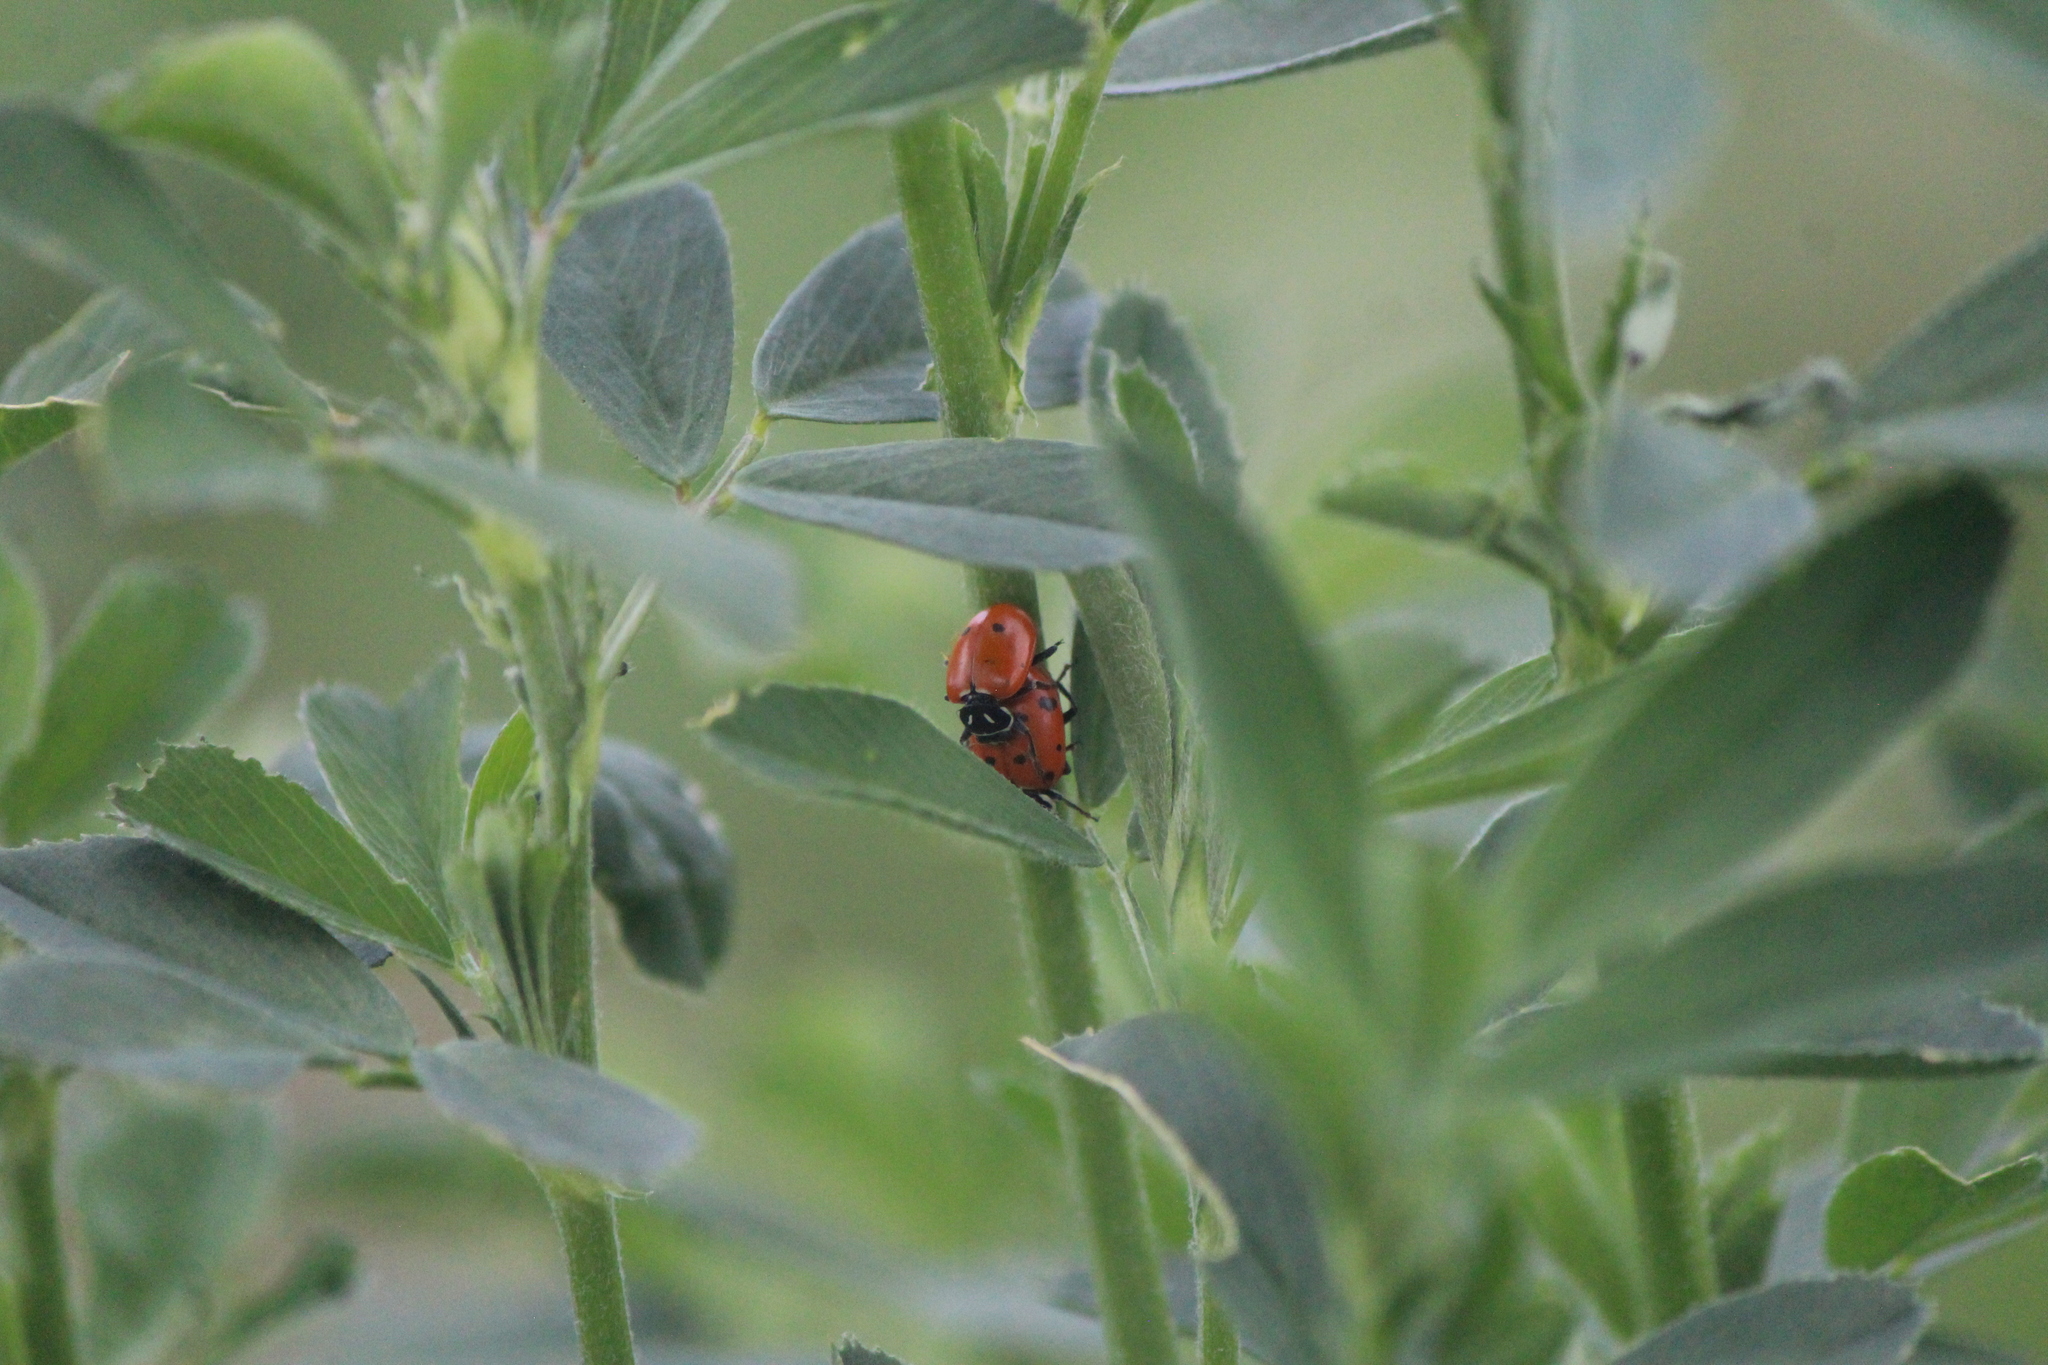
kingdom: Animalia
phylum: Arthropoda
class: Insecta
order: Coleoptera
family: Coccinellidae
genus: Hippodamia
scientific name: Hippodamia convergens
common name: Convergent lady beetle
